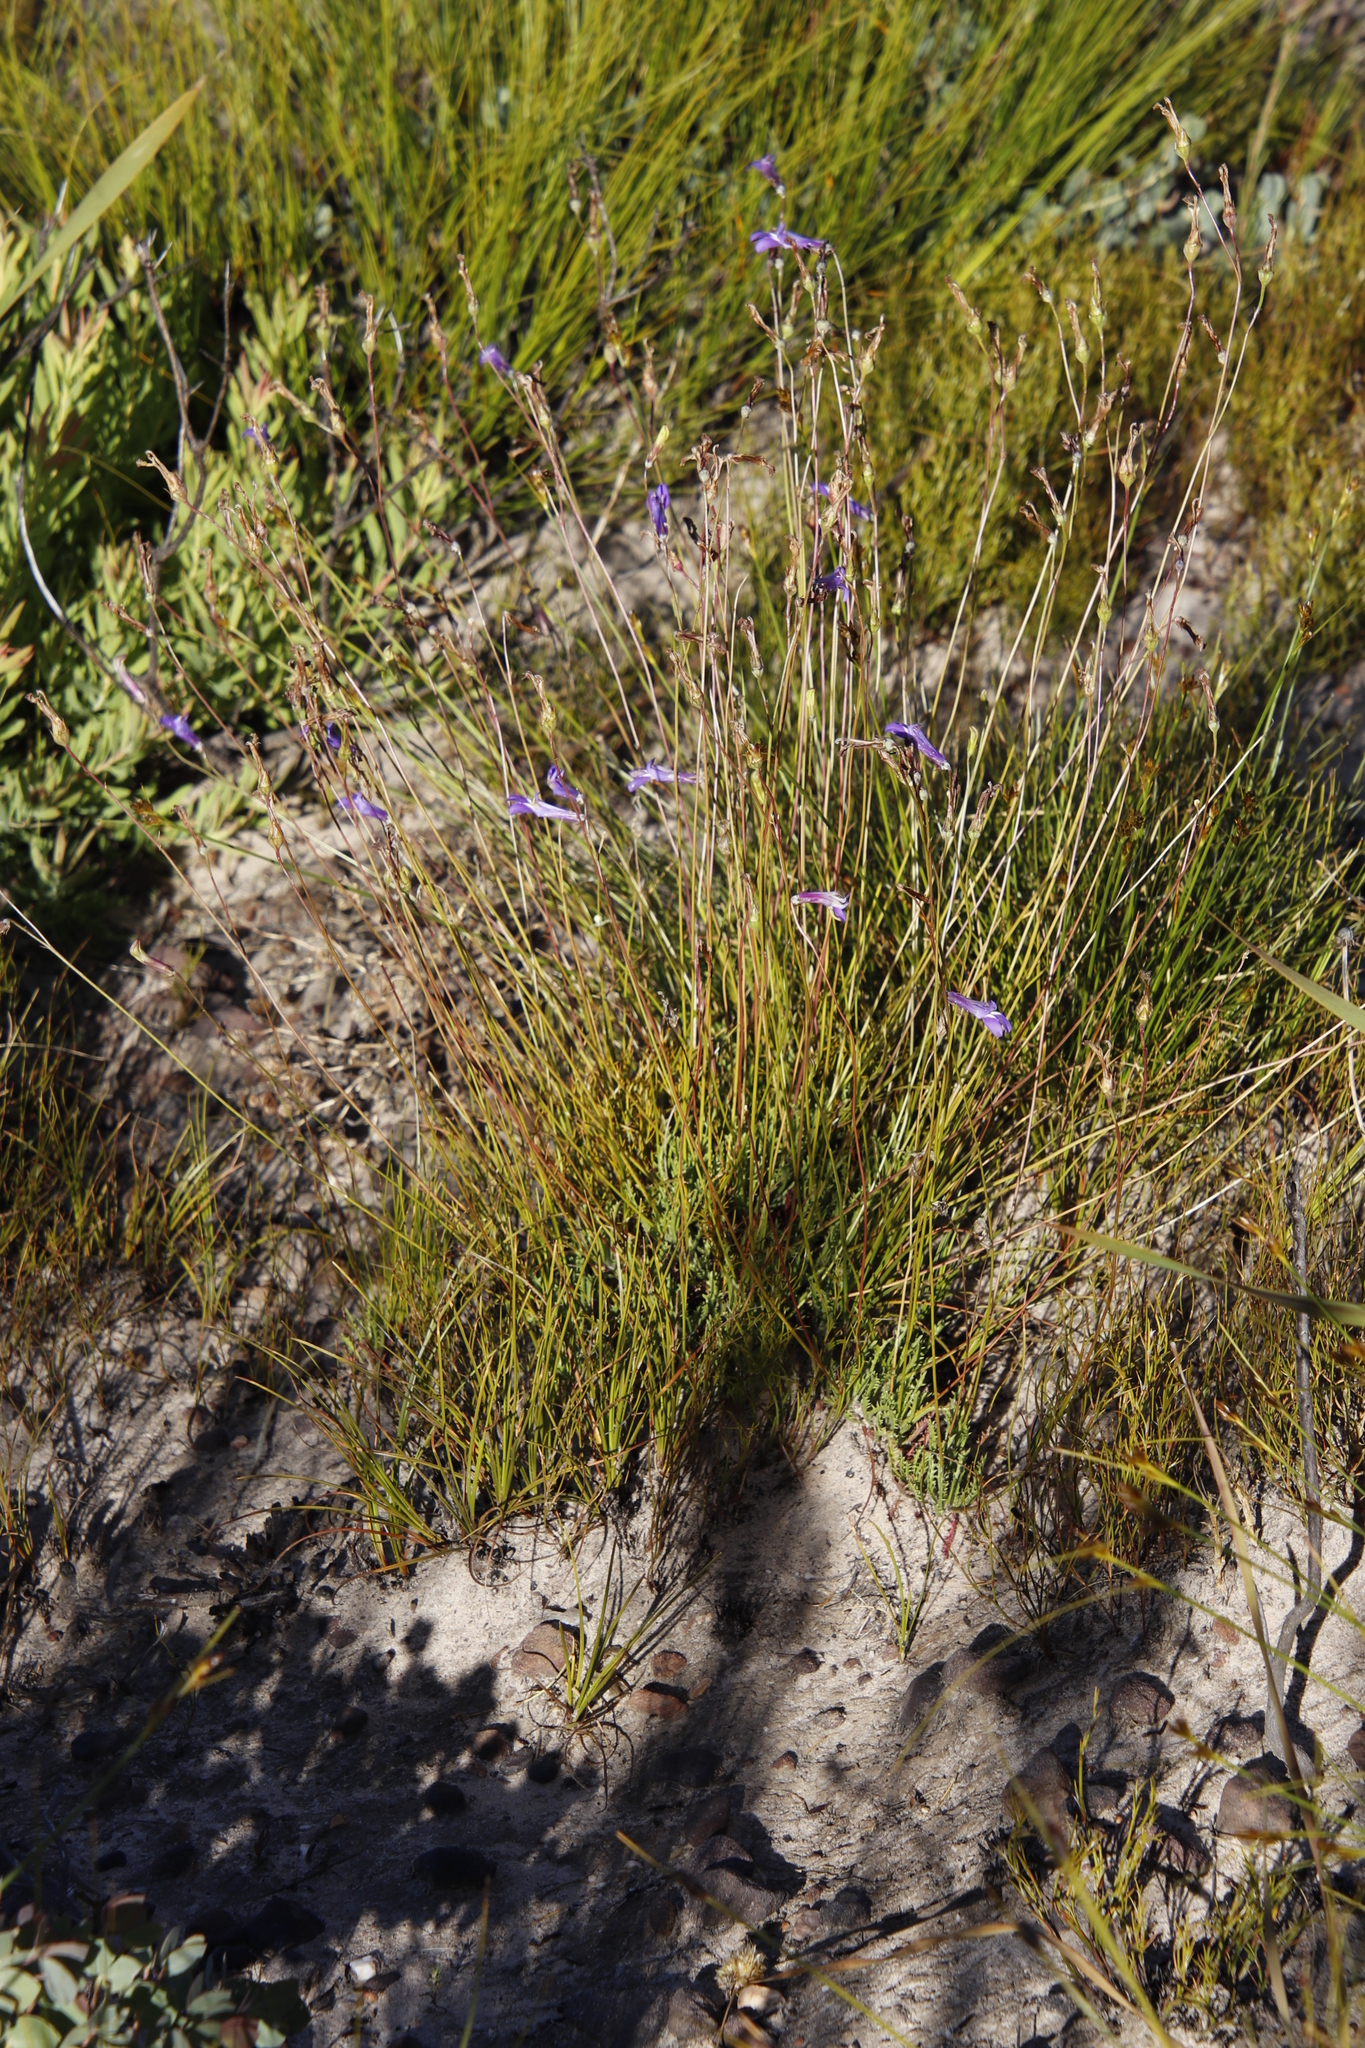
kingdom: Plantae
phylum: Tracheophyta
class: Magnoliopsida
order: Asterales
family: Campanulaceae
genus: Lobelia
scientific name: Lobelia coronopifolia
